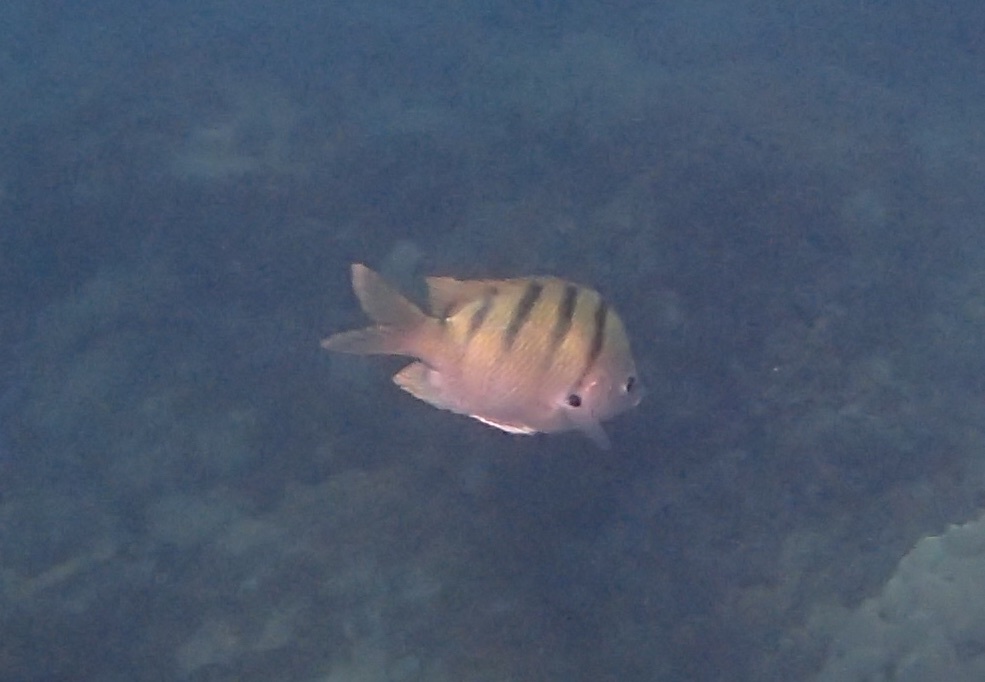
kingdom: Animalia
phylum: Chordata
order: Perciformes
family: Pomacentridae
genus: Abudefduf
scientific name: Abudefduf abdominalis
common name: Green damselfish
